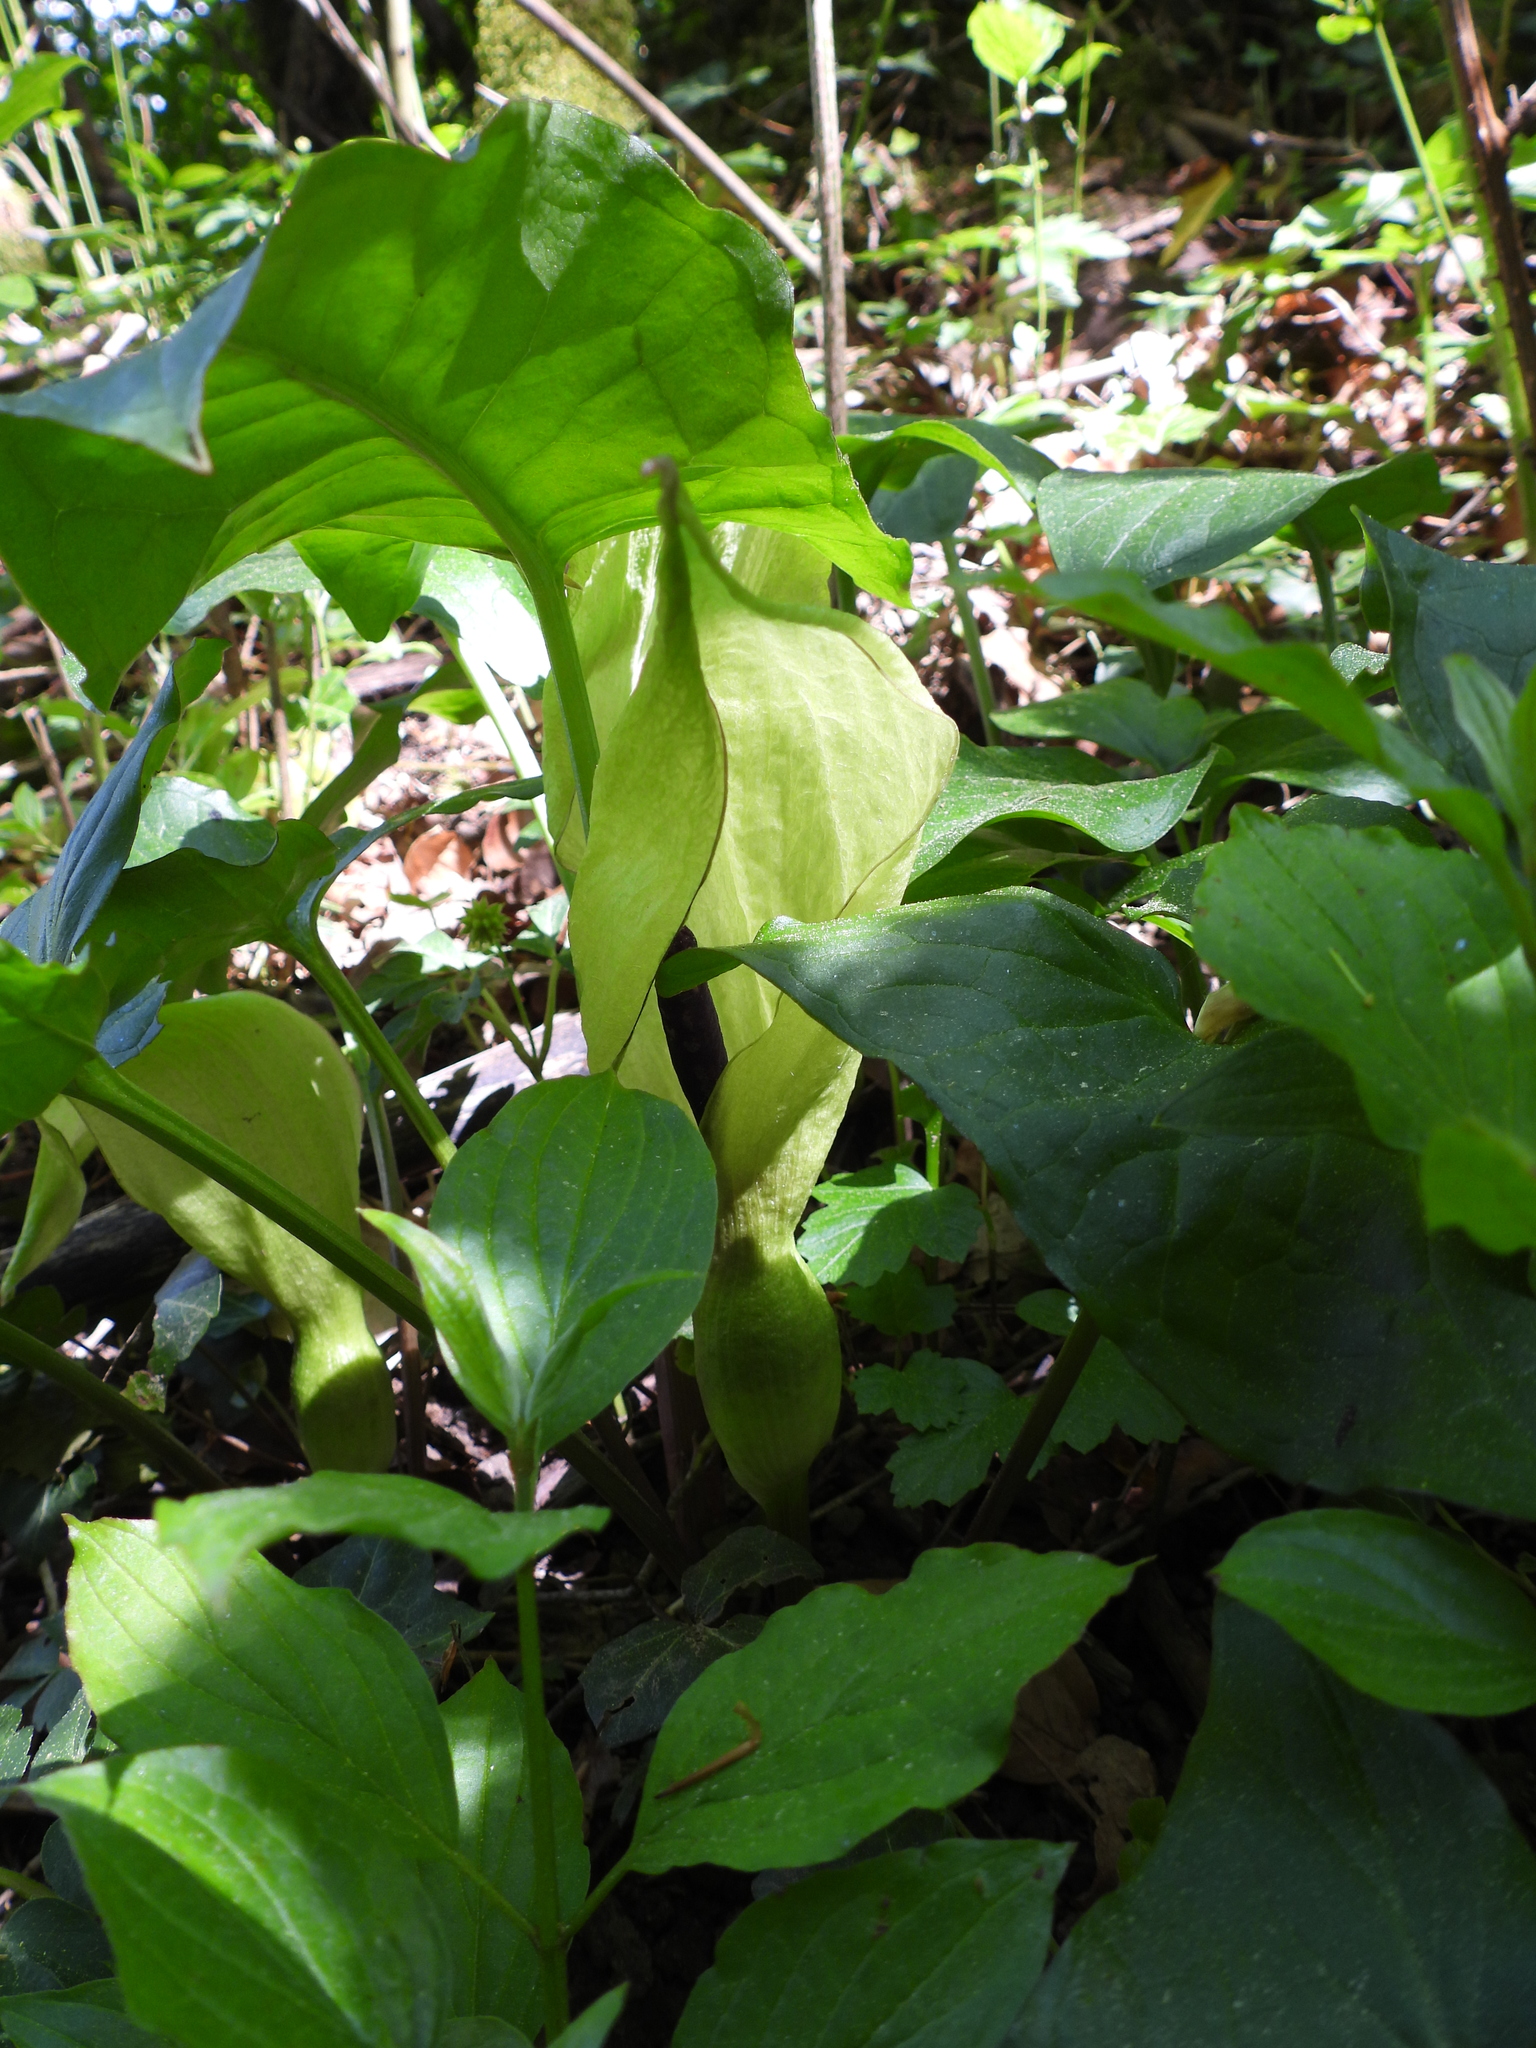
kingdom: Plantae
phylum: Tracheophyta
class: Liliopsida
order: Alismatales
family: Araceae
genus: Arum
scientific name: Arum maculatum
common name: Lords-and-ladies
